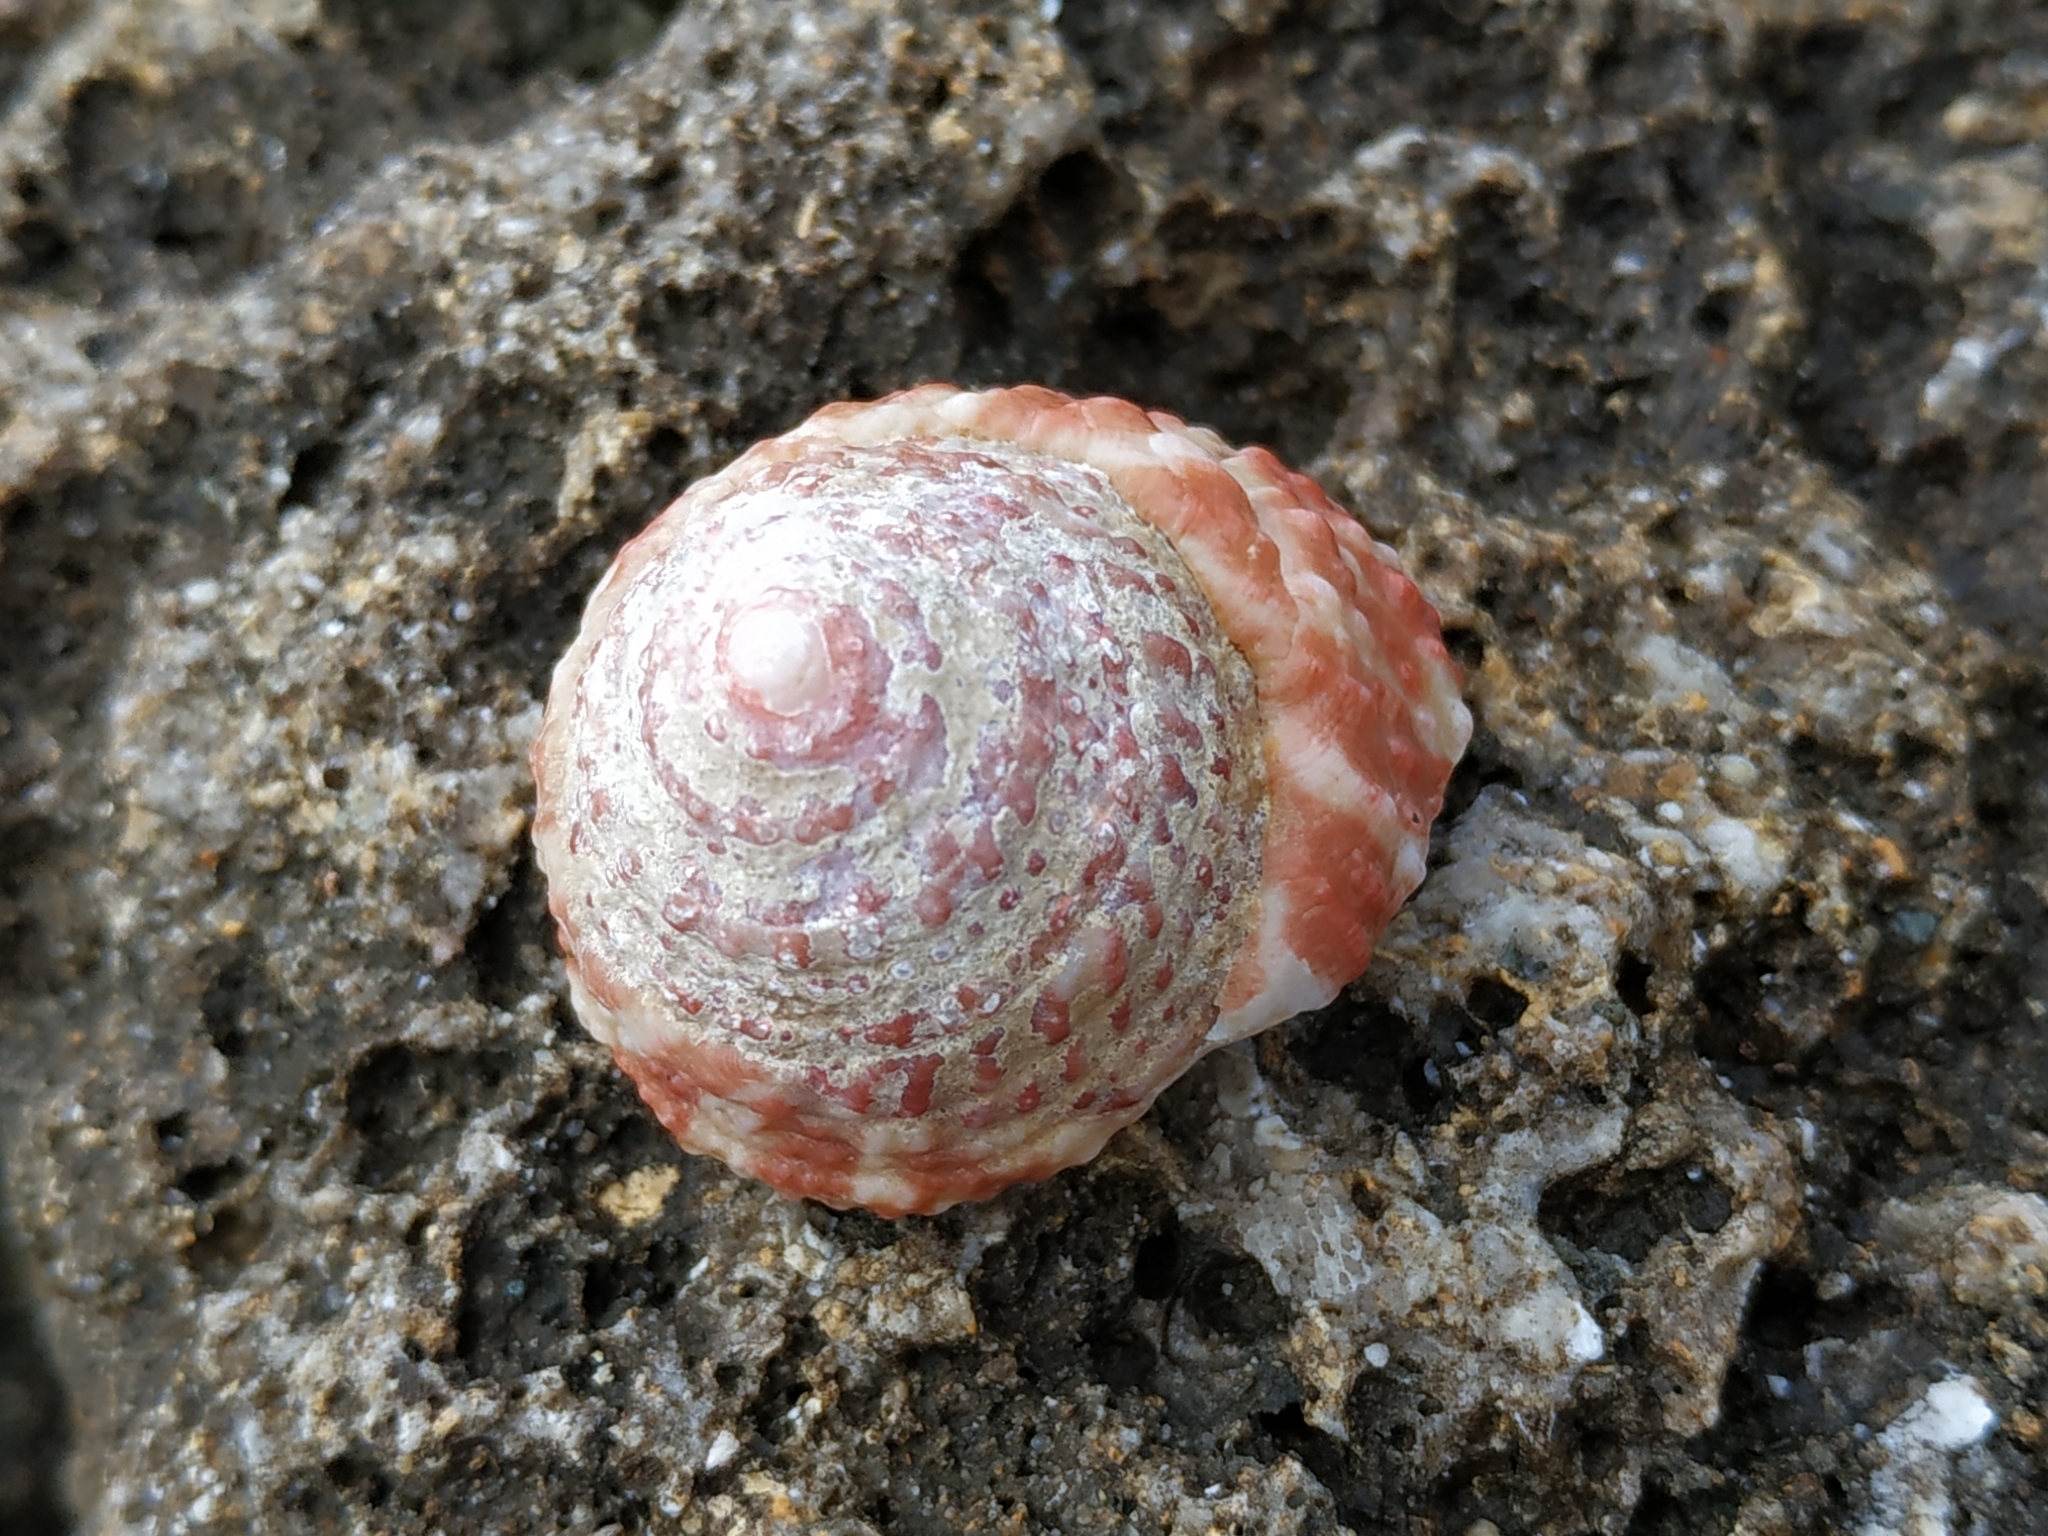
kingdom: Animalia
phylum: Mollusca
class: Gastropoda
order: Trochida
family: Trochidae
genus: Trochus
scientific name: Trochus stellatus
